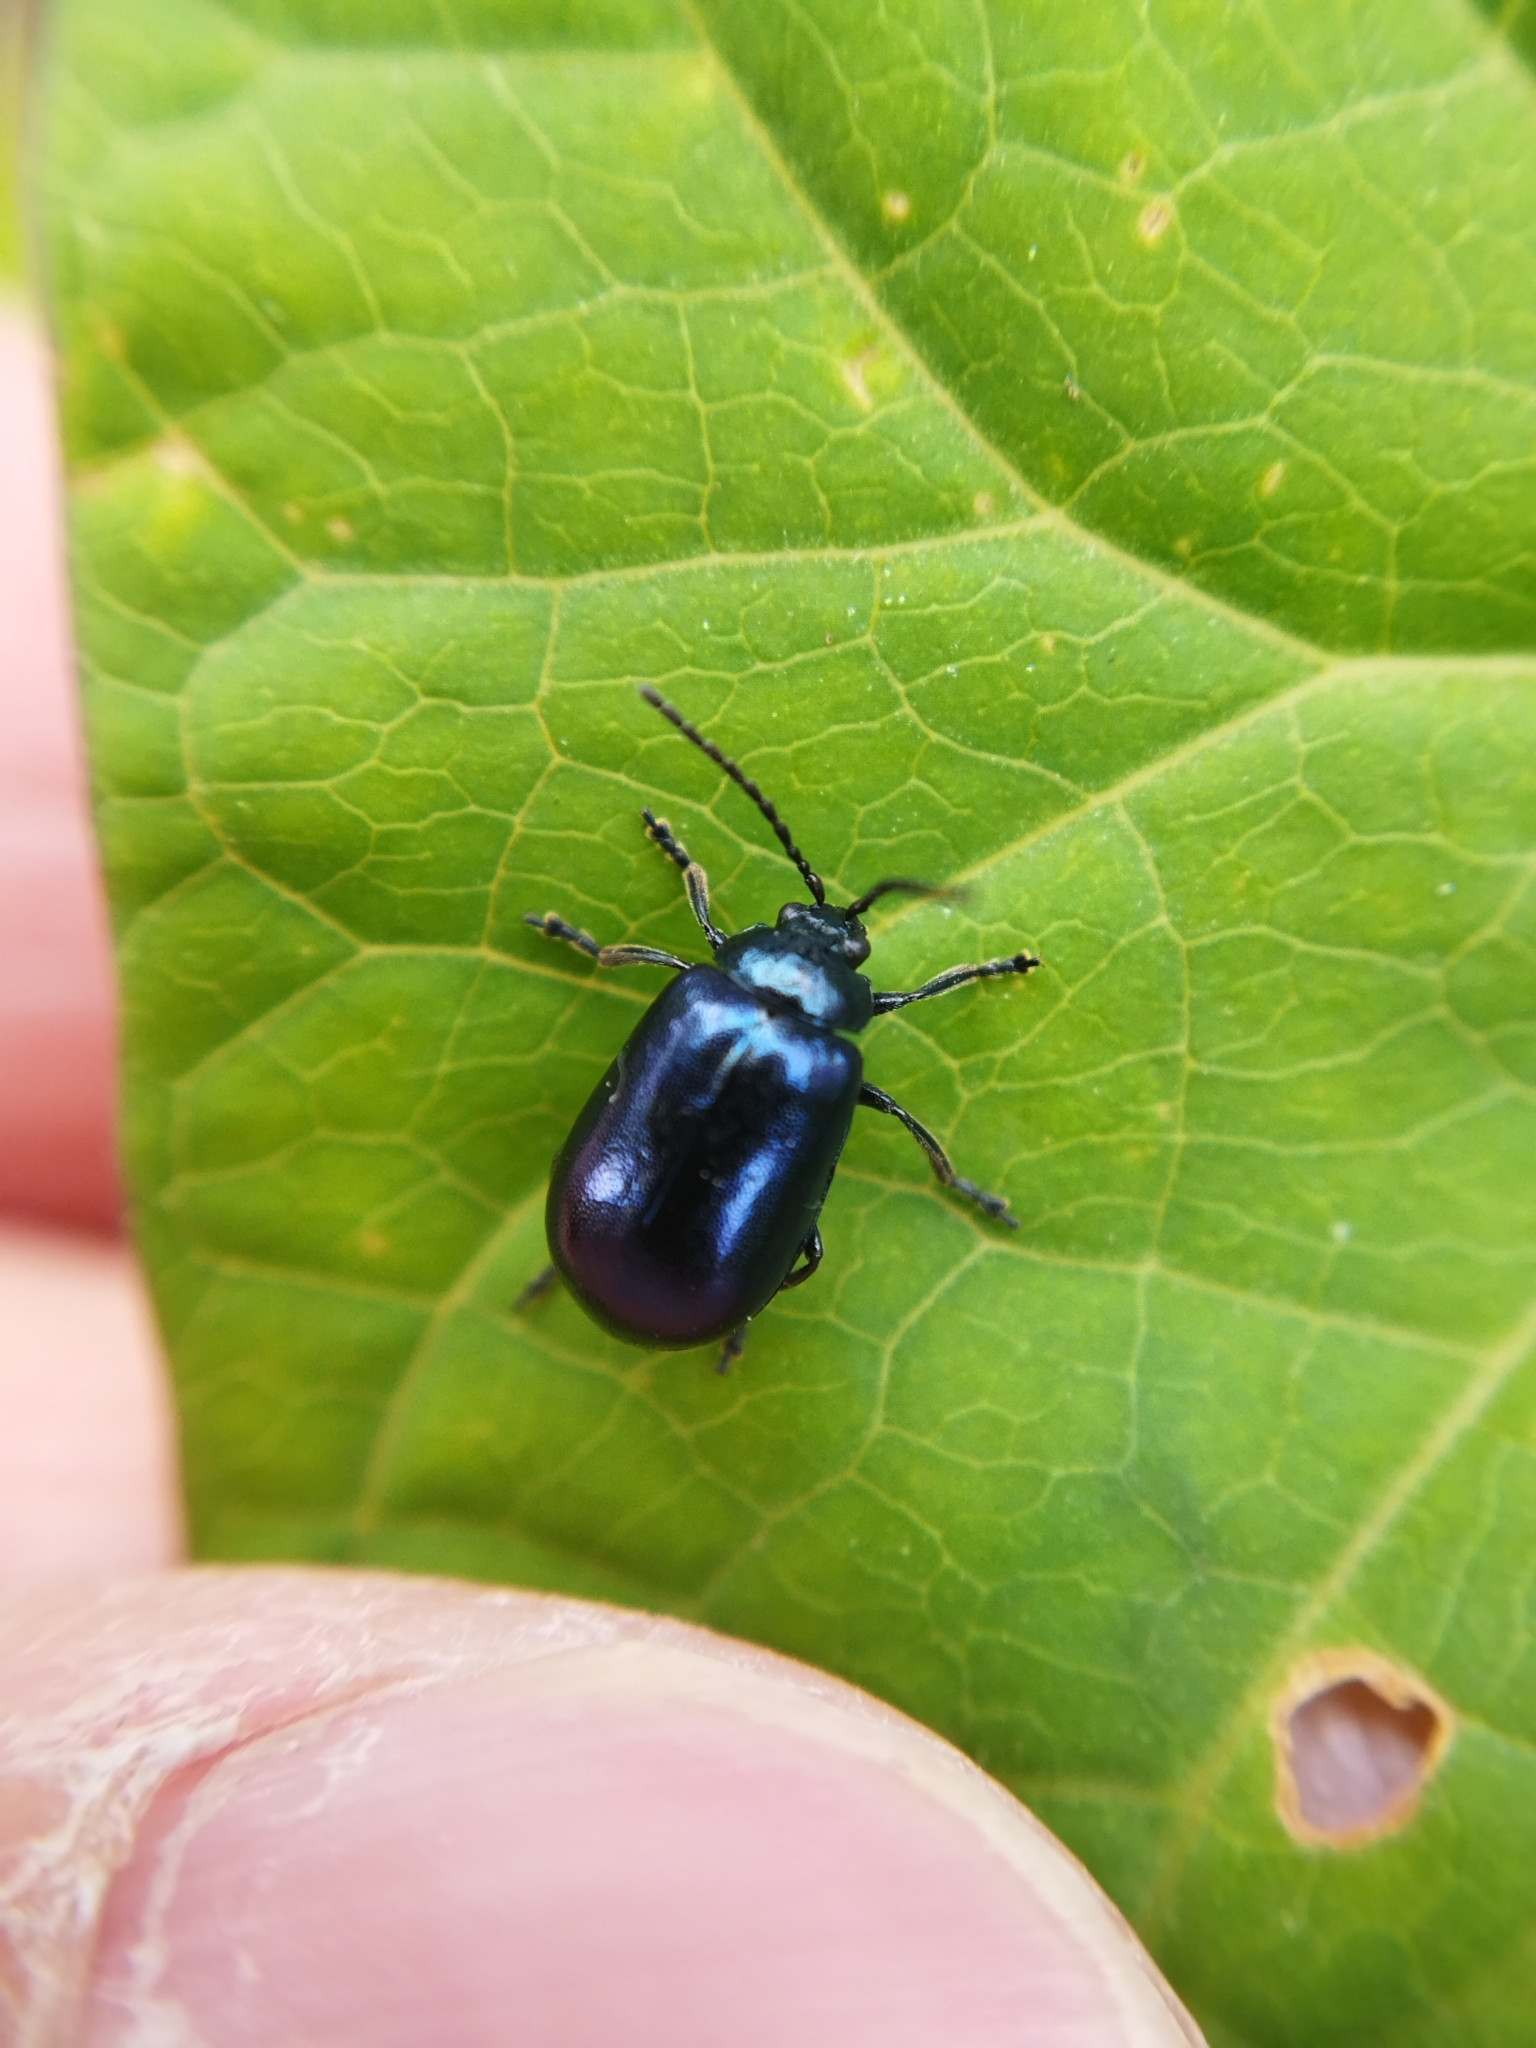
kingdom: Animalia
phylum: Arthropoda
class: Insecta
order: Coleoptera
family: Chrysomelidae
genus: Agelastica
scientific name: Agelastica alni
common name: Alder leaf beetle
